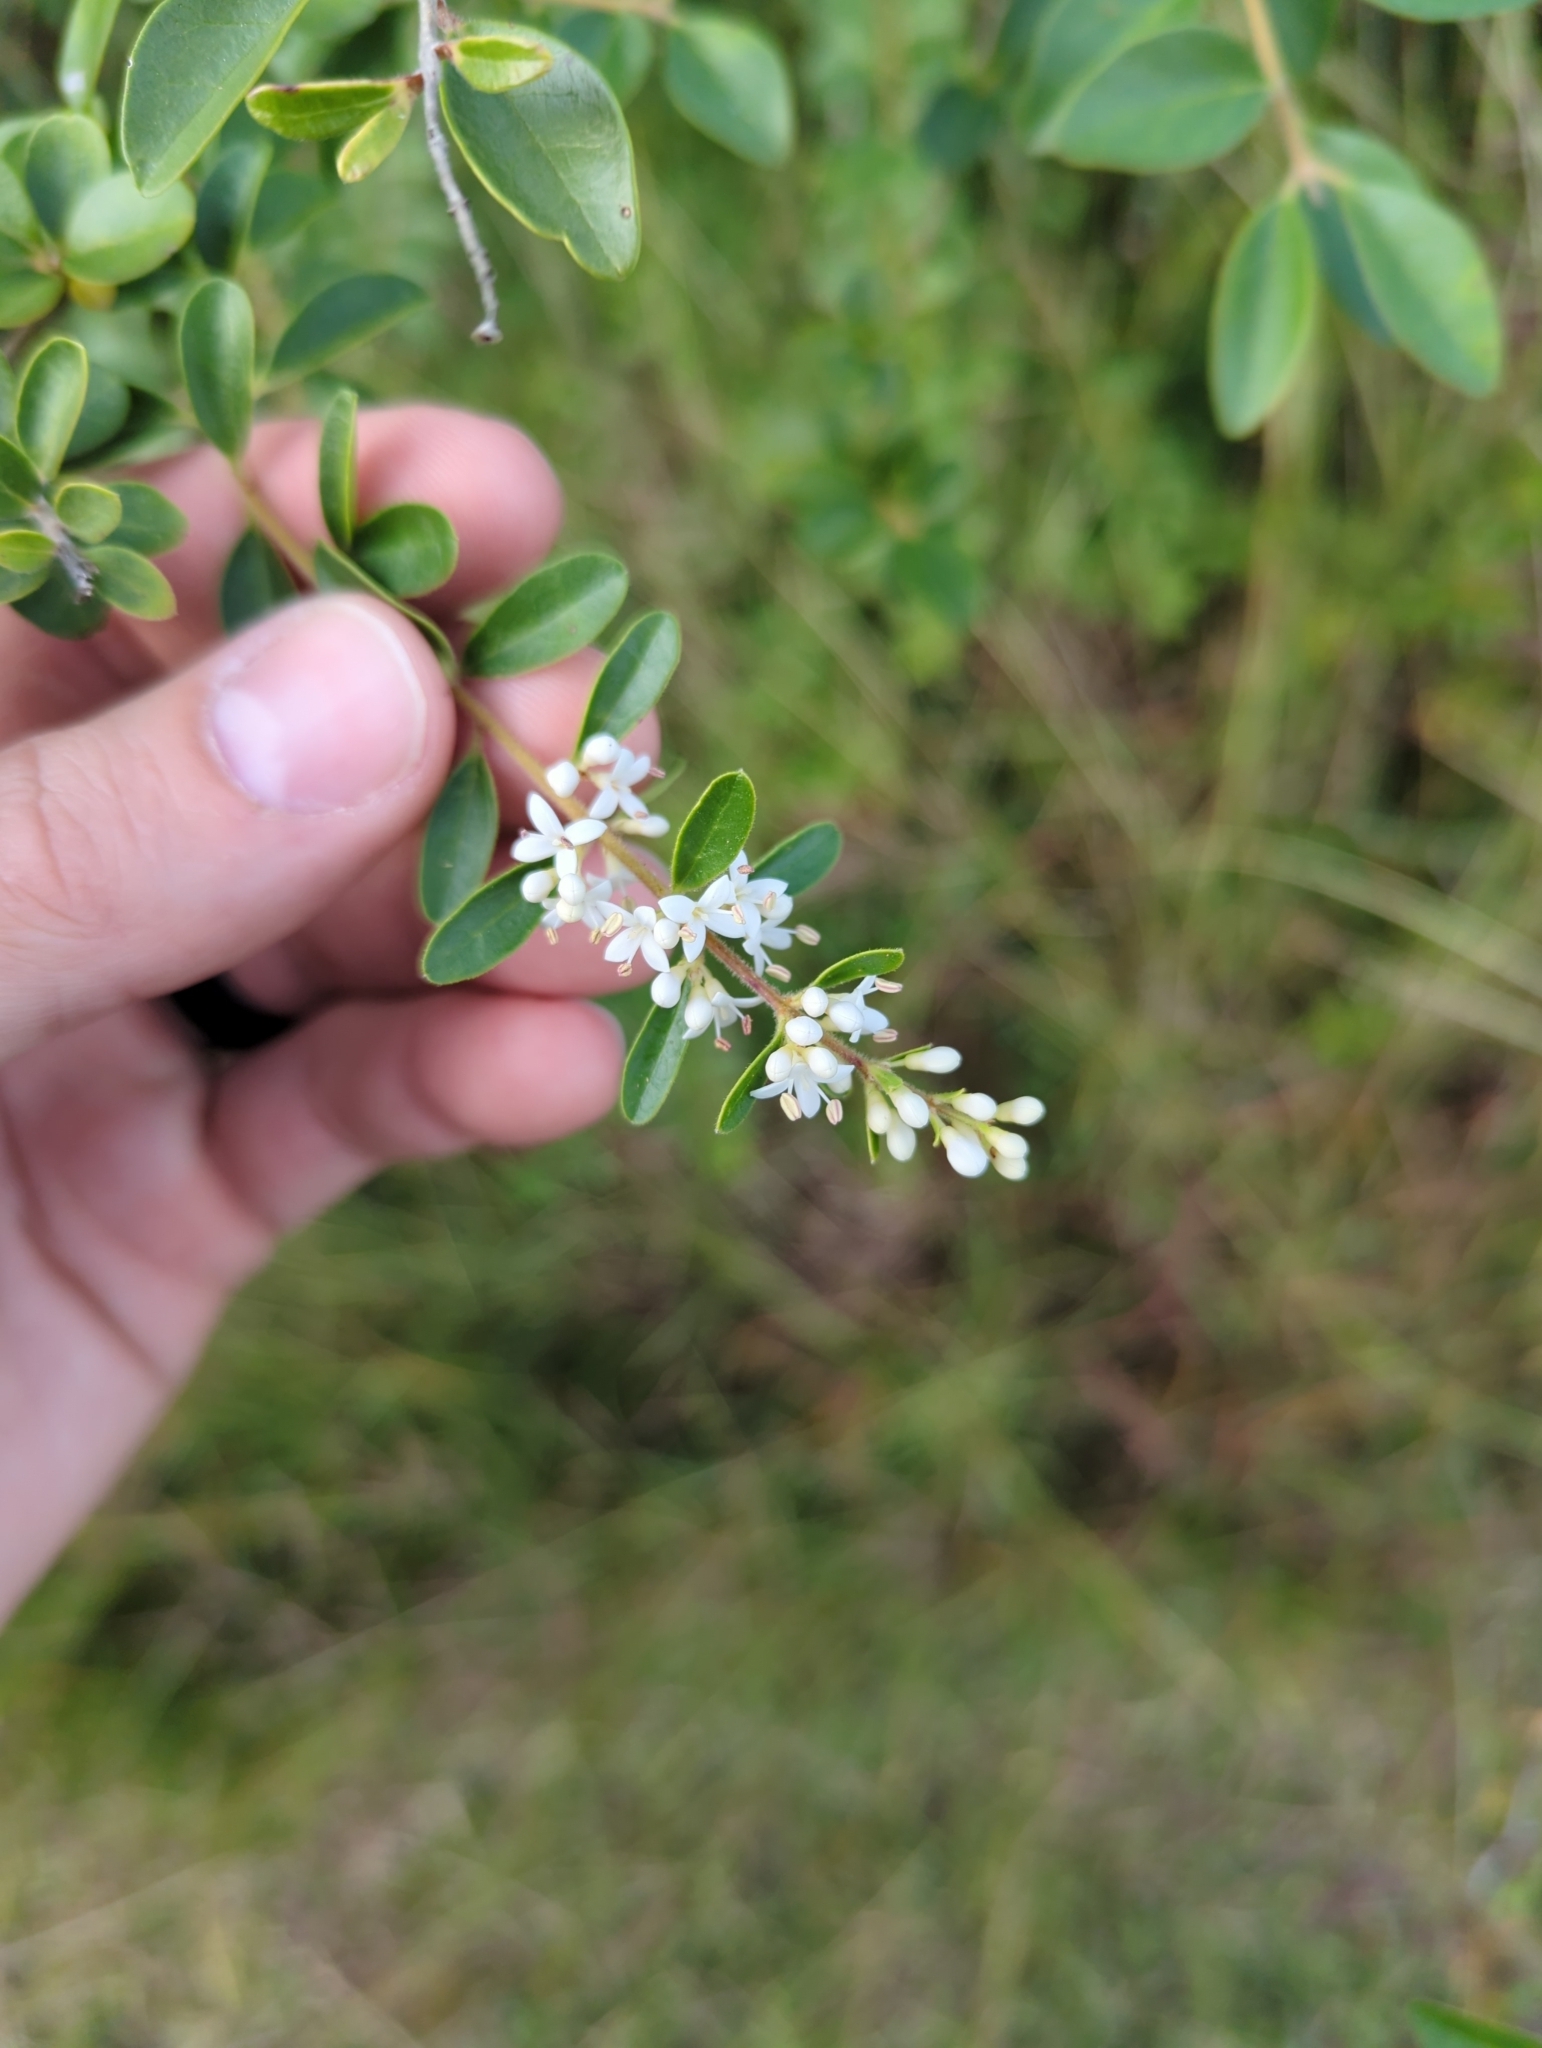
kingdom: Plantae
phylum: Tracheophyta
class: Magnoliopsida
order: Lamiales
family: Oleaceae
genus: Ligustrum
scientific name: Ligustrum sinense
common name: Chinese privet
